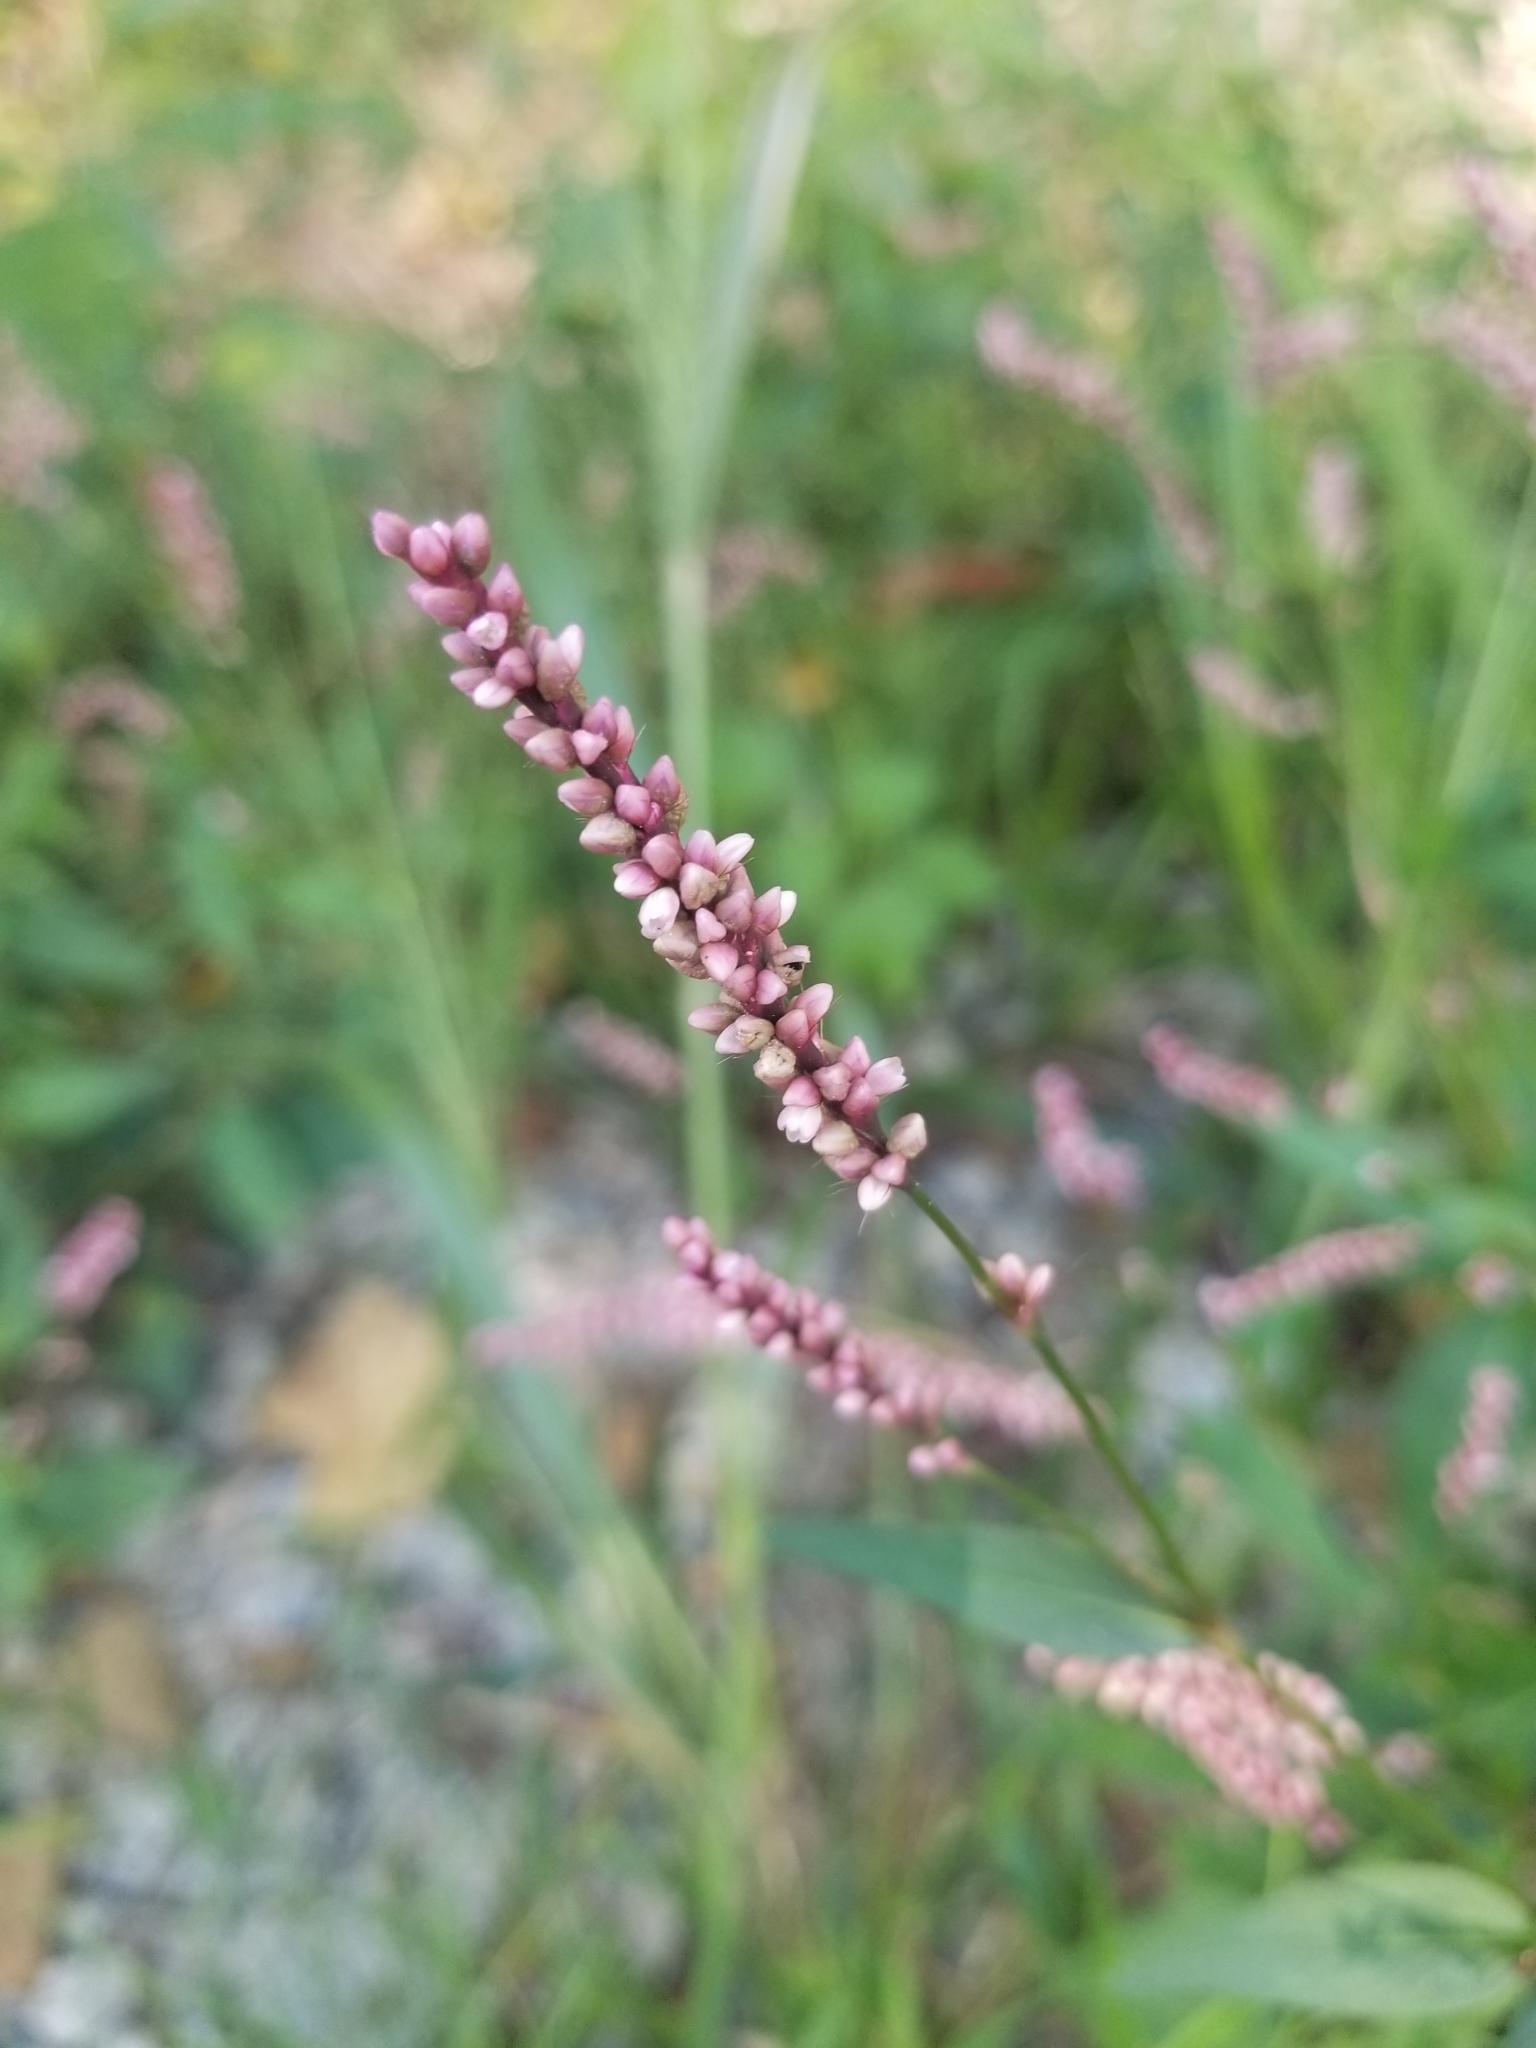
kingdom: Plantae
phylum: Tracheophyta
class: Magnoliopsida
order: Caryophyllales
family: Polygonaceae
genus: Persicaria
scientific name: Persicaria longiseta
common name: Bristly lady's-thumb
